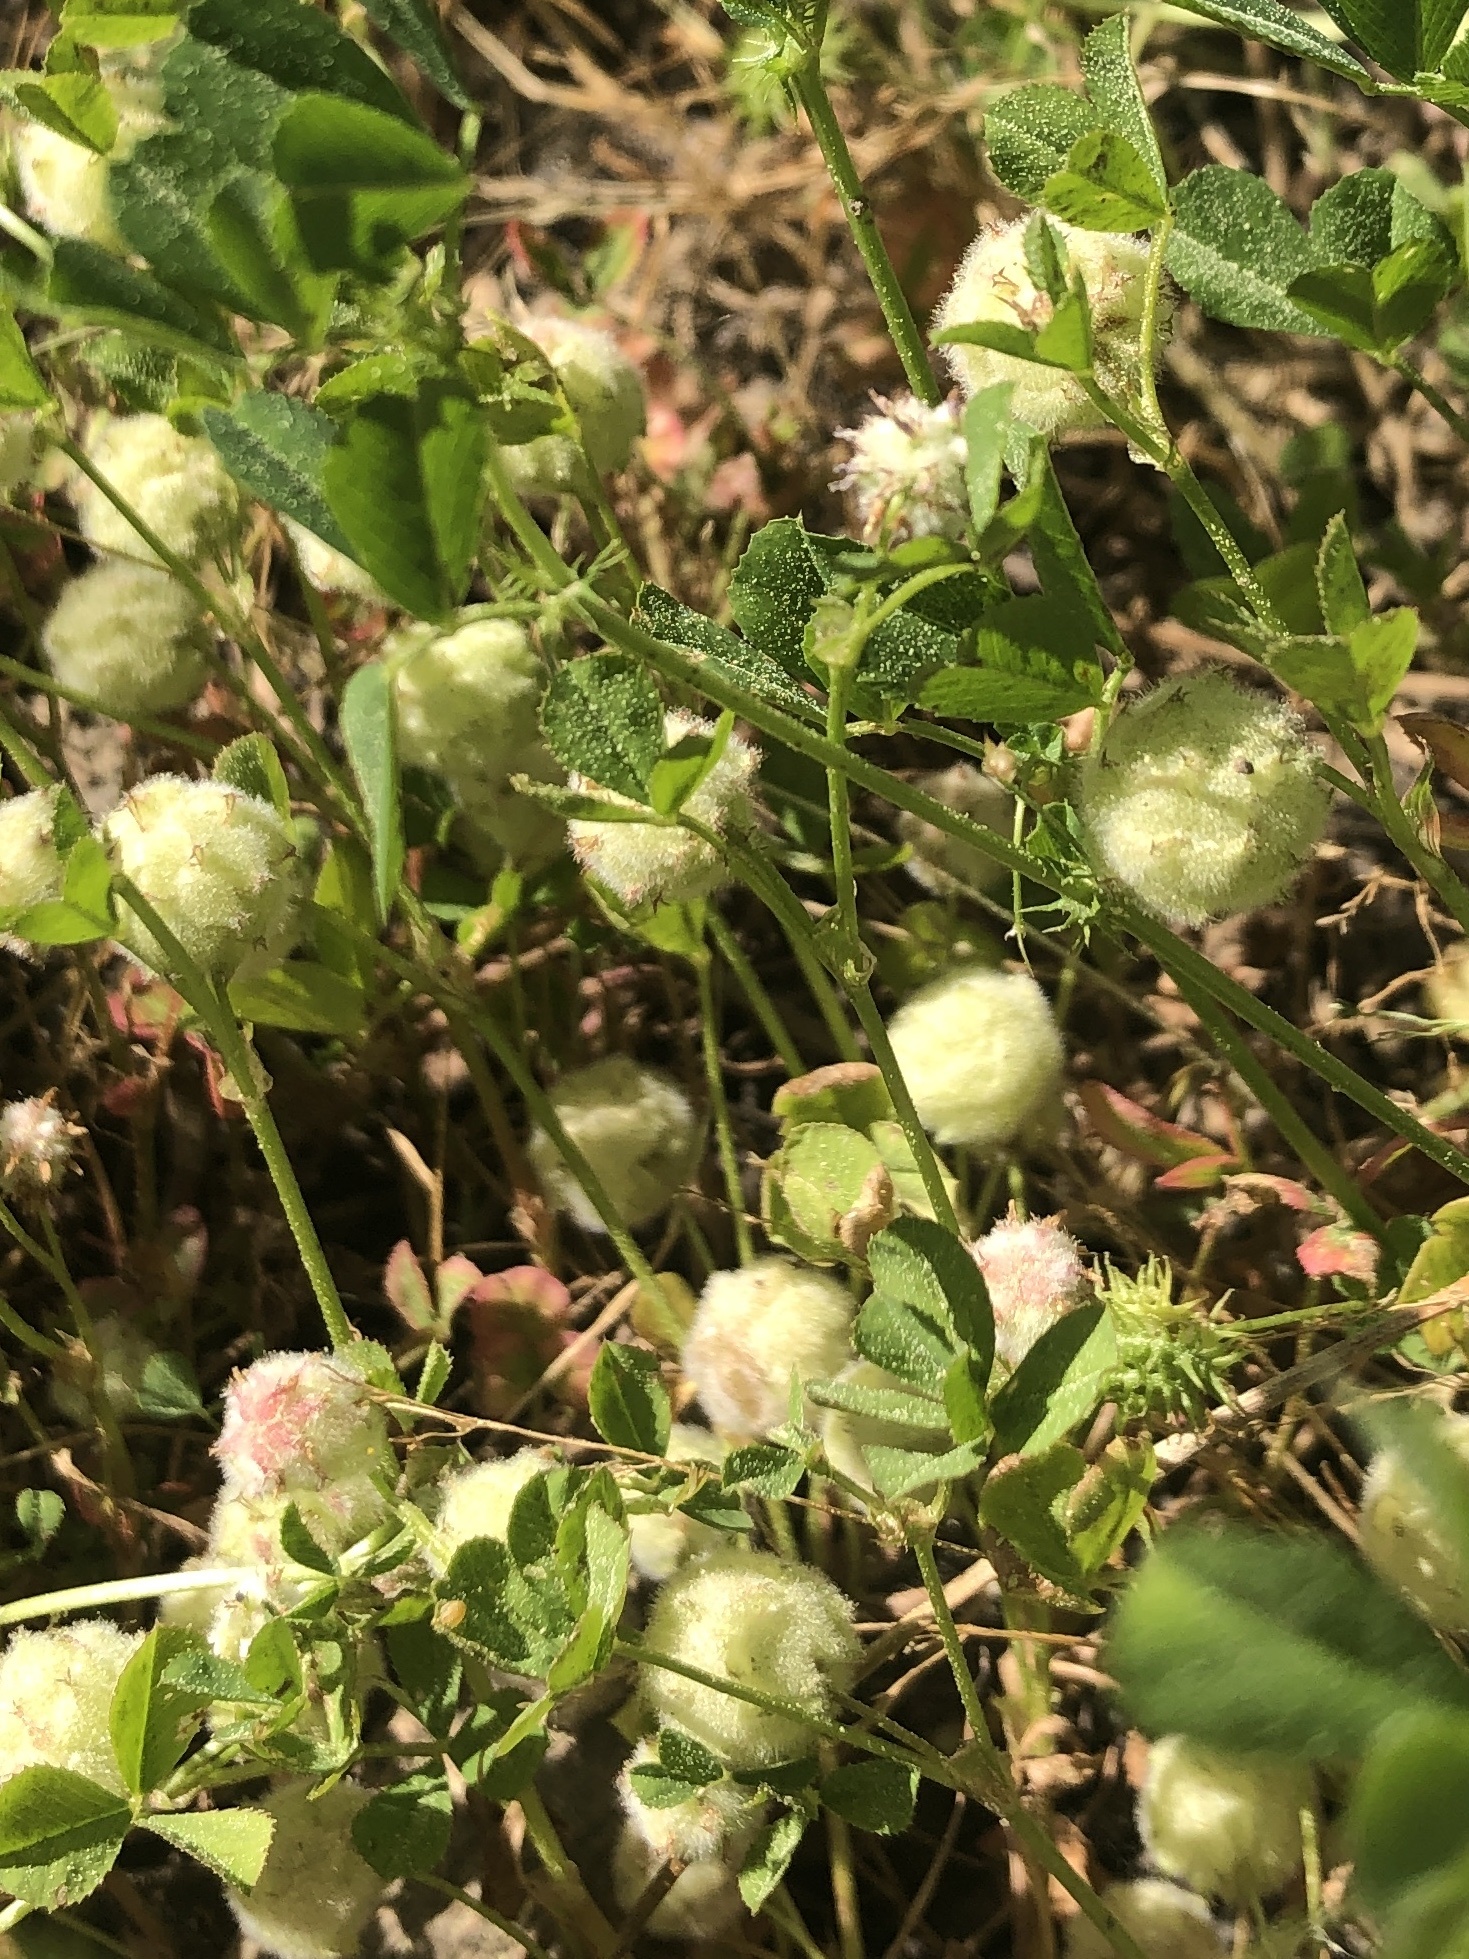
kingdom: Plantae
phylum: Tracheophyta
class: Magnoliopsida
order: Fabales
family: Fabaceae
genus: Trifolium
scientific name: Trifolium tomentosum
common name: Woolly clover
